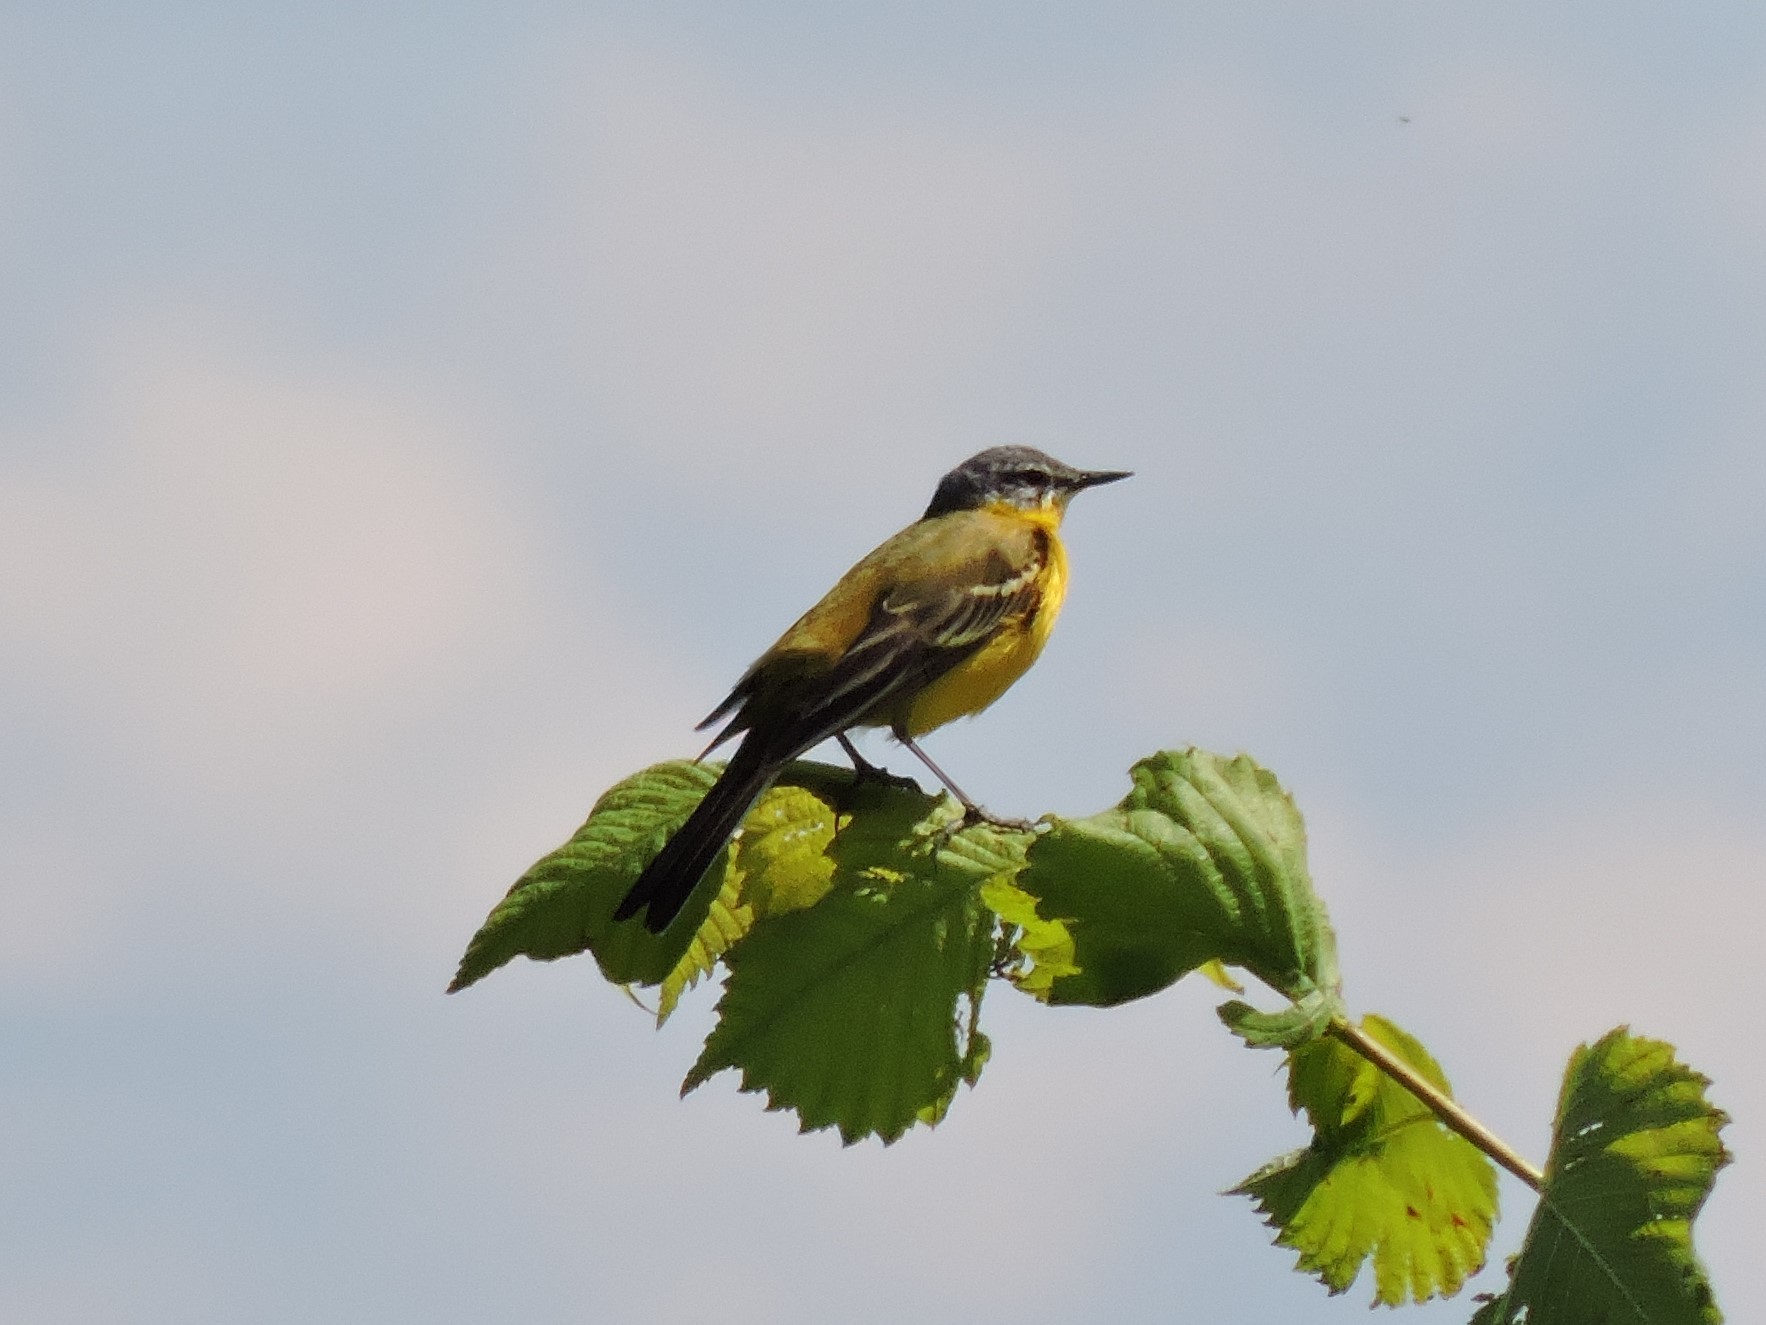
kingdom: Animalia
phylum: Chordata
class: Aves
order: Passeriformes
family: Motacillidae
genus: Motacilla
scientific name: Motacilla flava
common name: Western yellow wagtail
